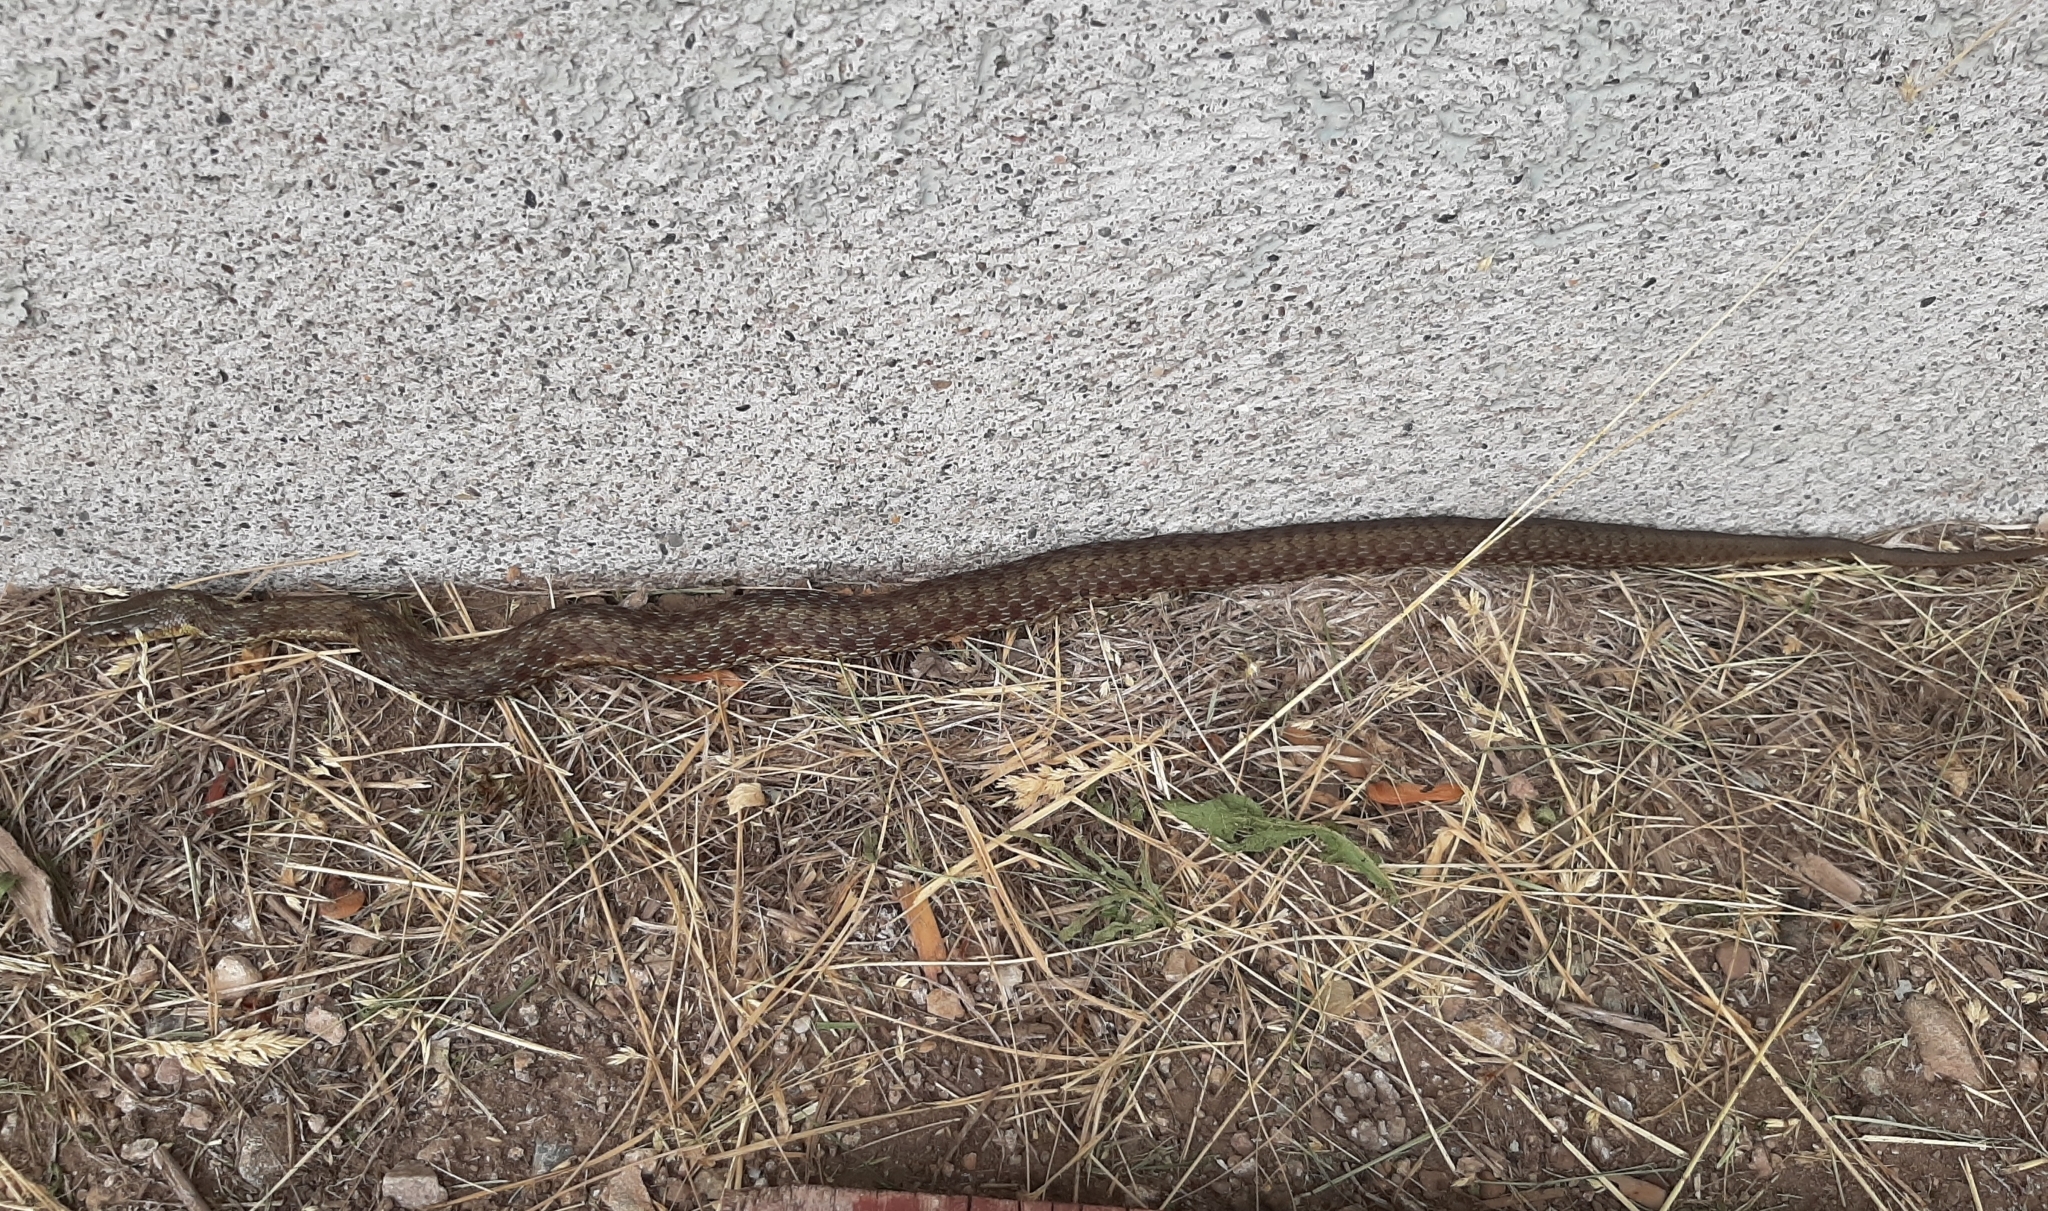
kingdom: Animalia
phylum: Chordata
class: Squamata
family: Colubridae
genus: Thamnophis
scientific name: Thamnophis sirtalis
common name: Common garter snake
